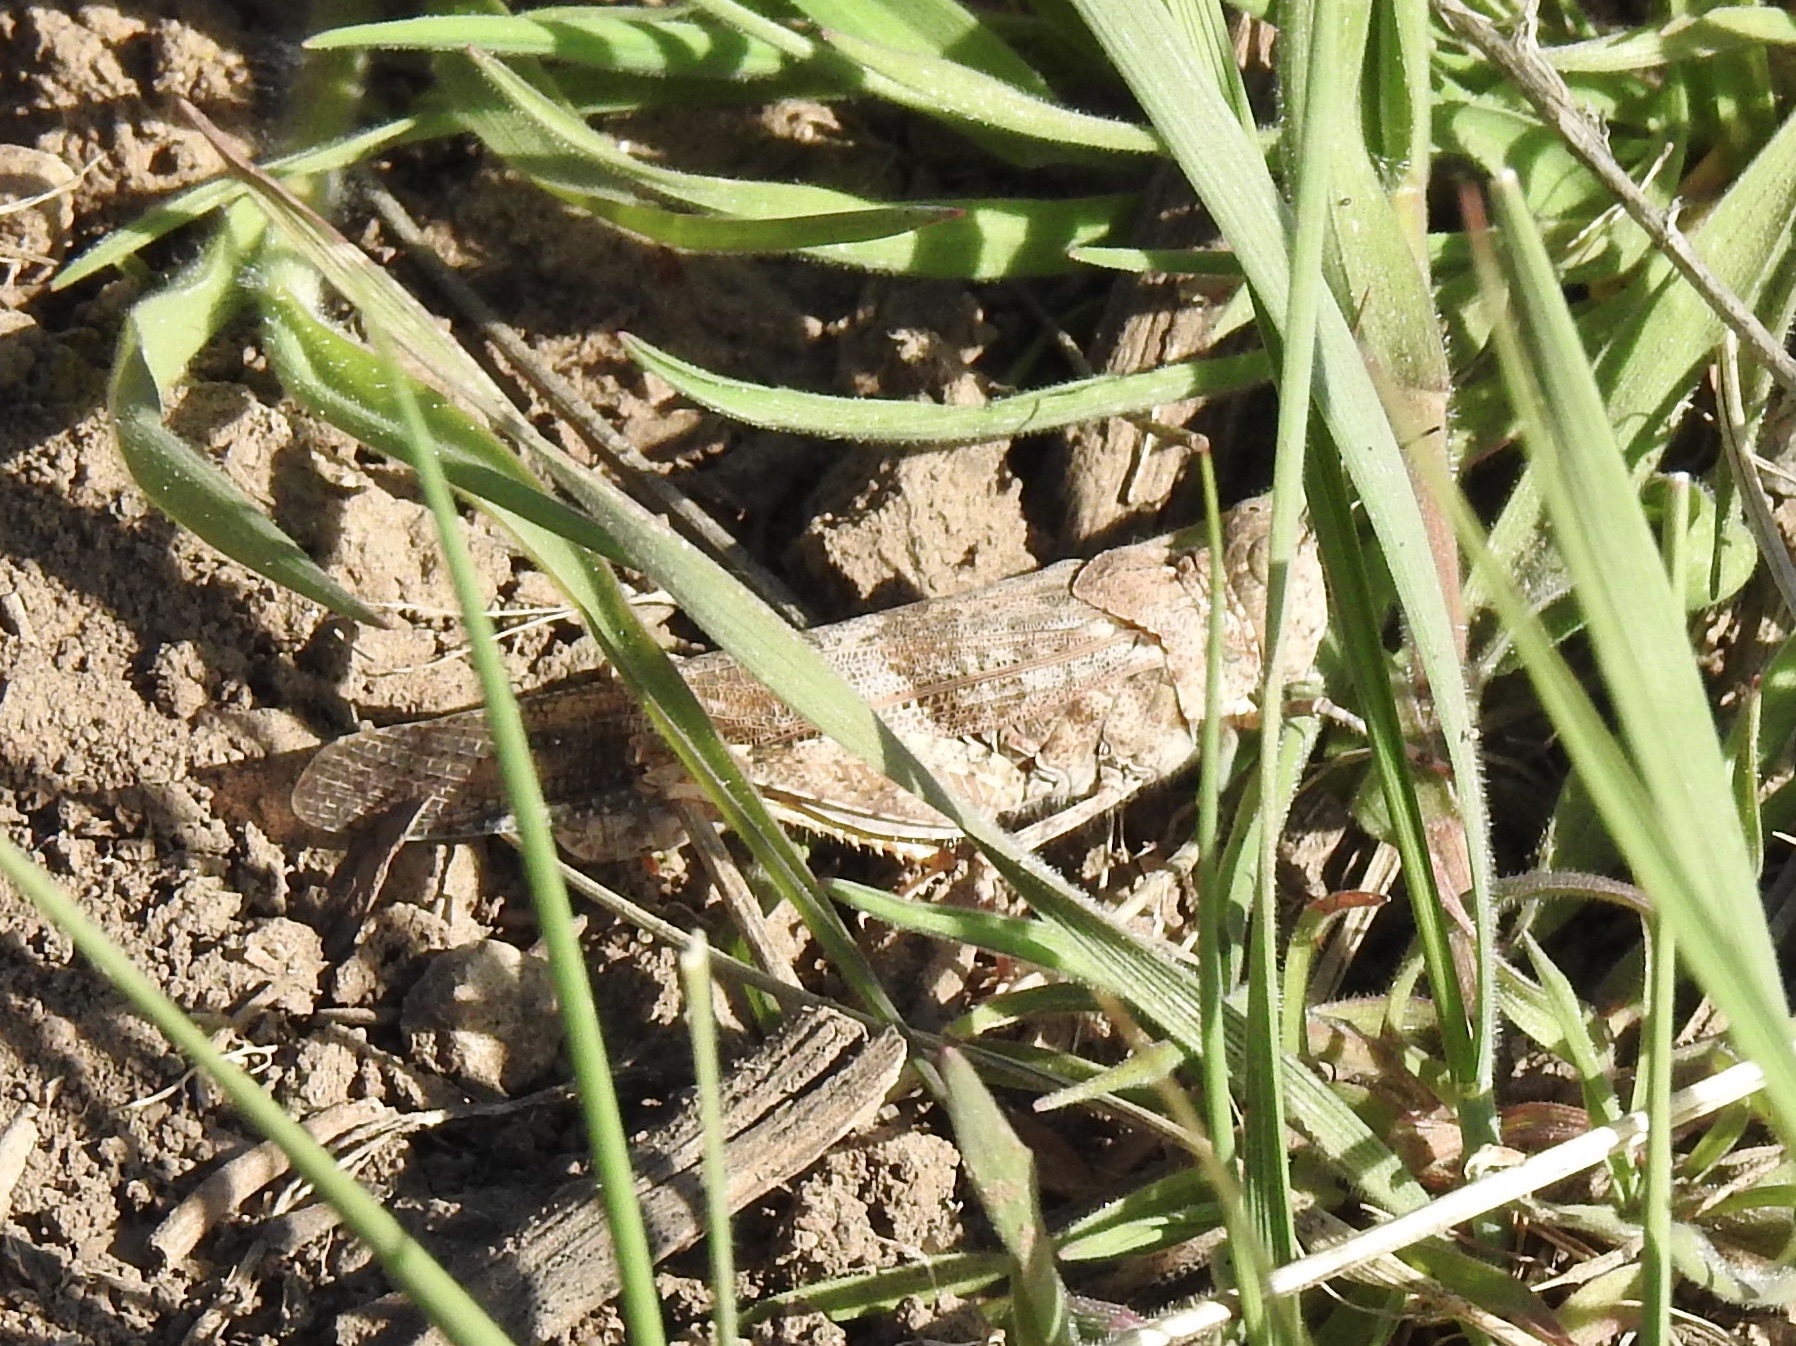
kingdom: Animalia
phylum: Arthropoda
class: Insecta
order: Orthoptera
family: Acrididae
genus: Trimerotropis
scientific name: Trimerotropis pallidipennis
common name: Pallid-winged grasshopper
